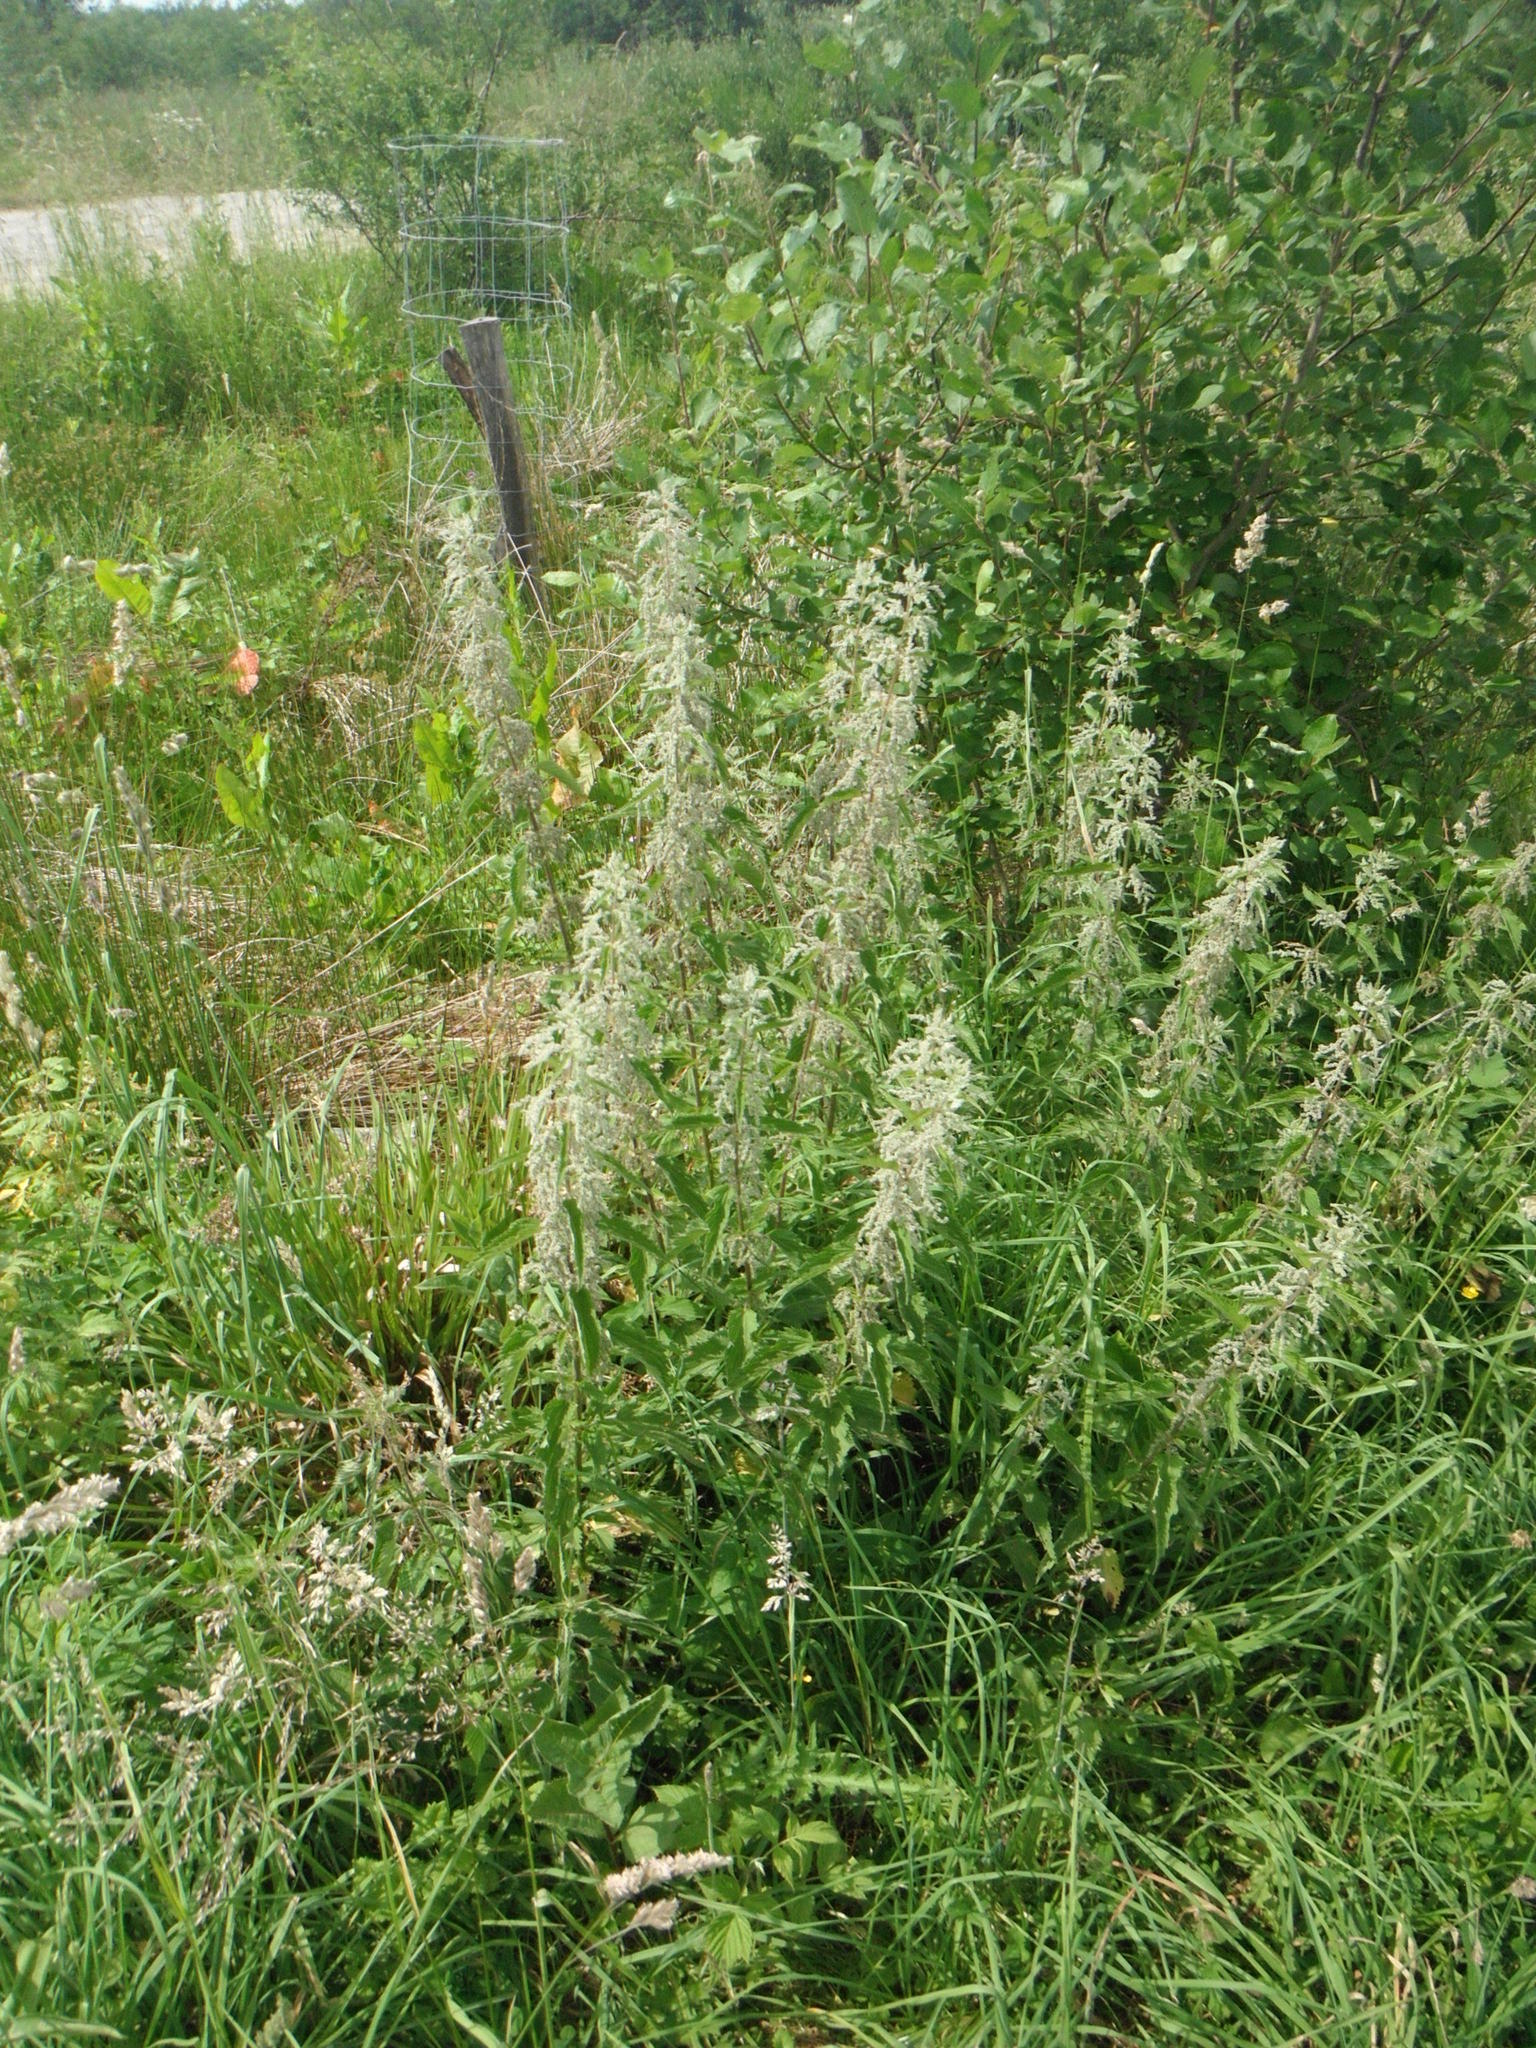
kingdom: Plantae
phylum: Tracheophyta
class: Magnoliopsida
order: Rosales
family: Urticaceae
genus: Urtica
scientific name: Urtica dioica
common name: Common nettle
